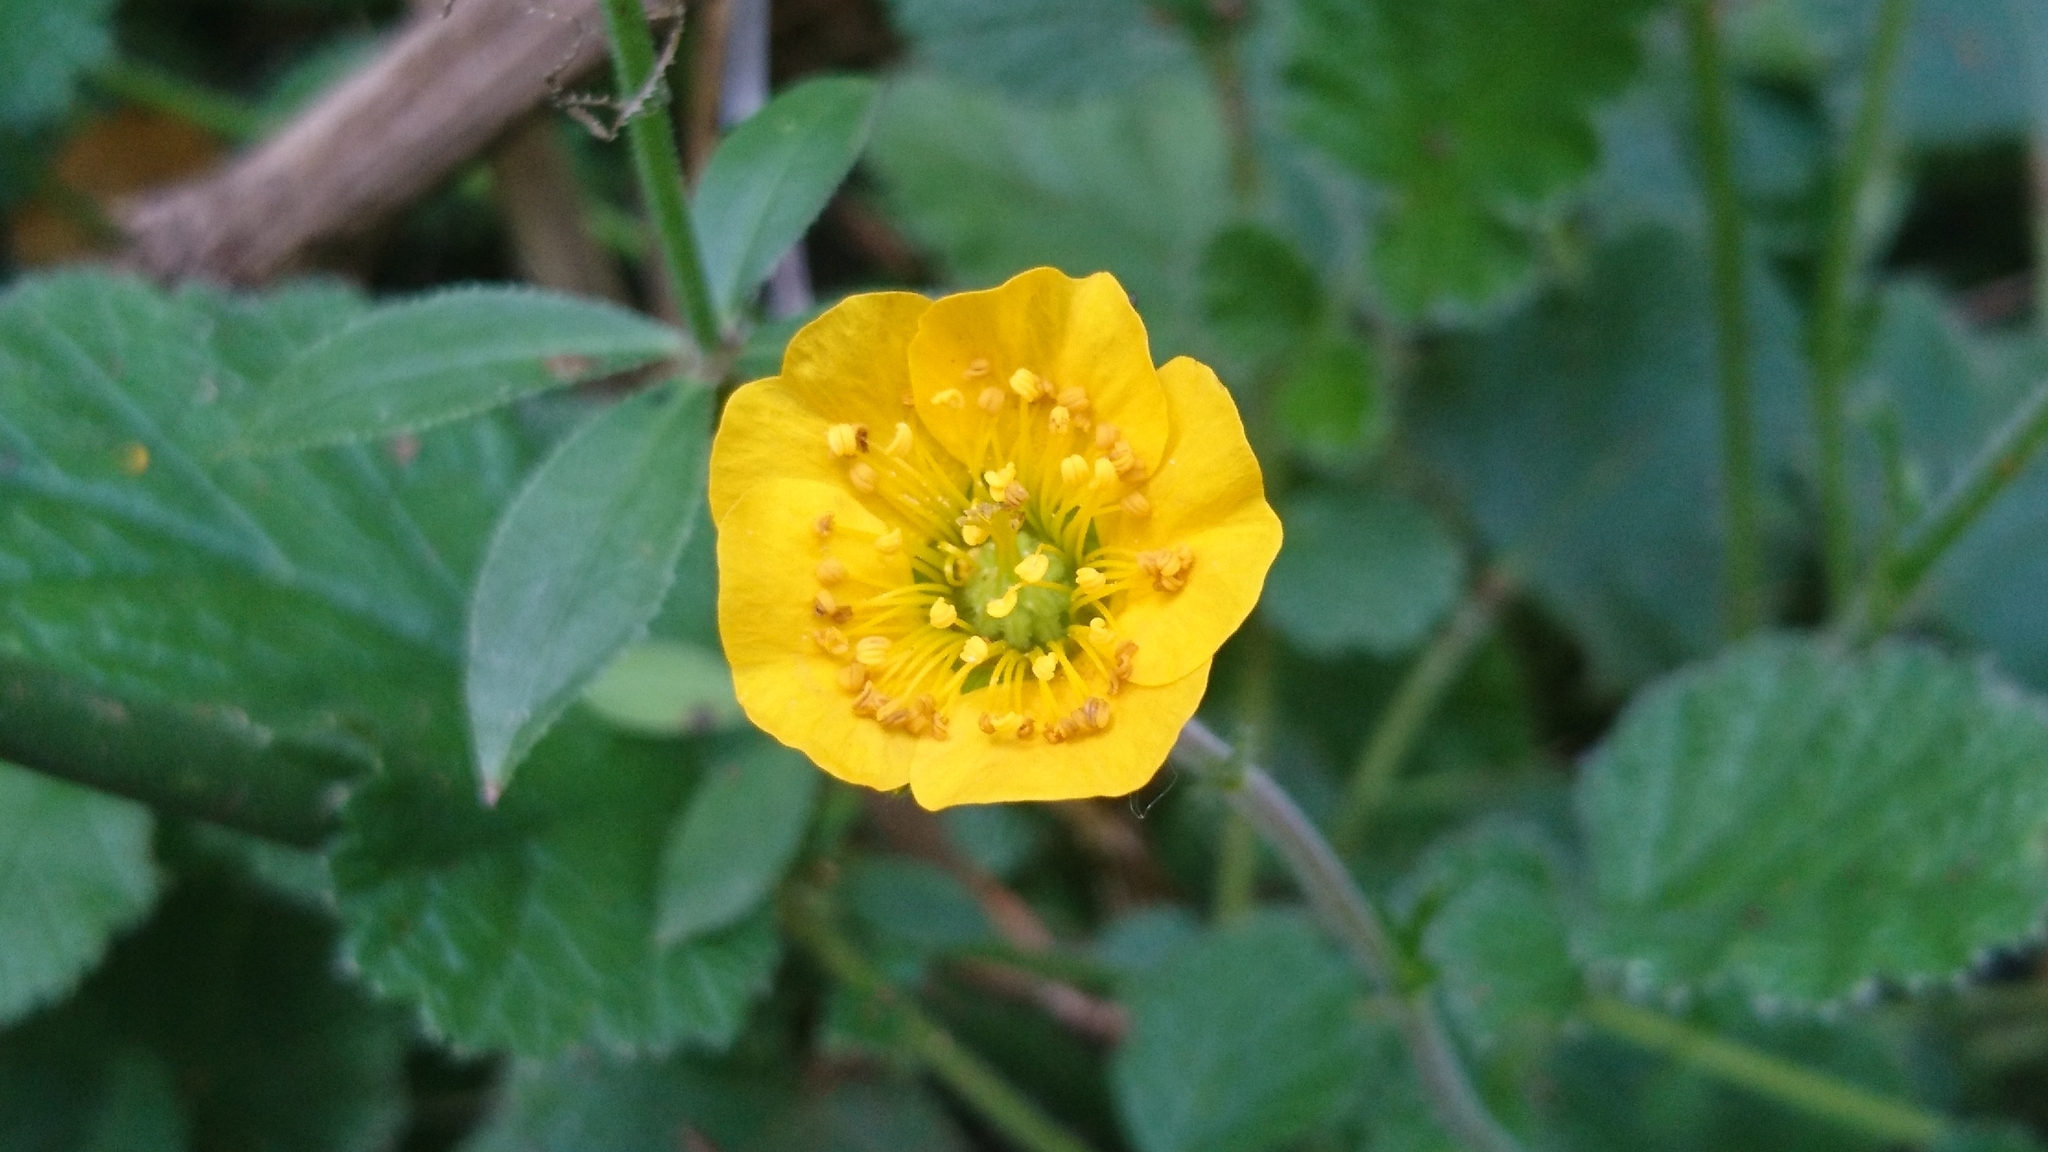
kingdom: Plantae
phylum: Tracheophyta
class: Magnoliopsida
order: Rosales
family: Rosaceae
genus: Geum
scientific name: Geum sylvaticum
